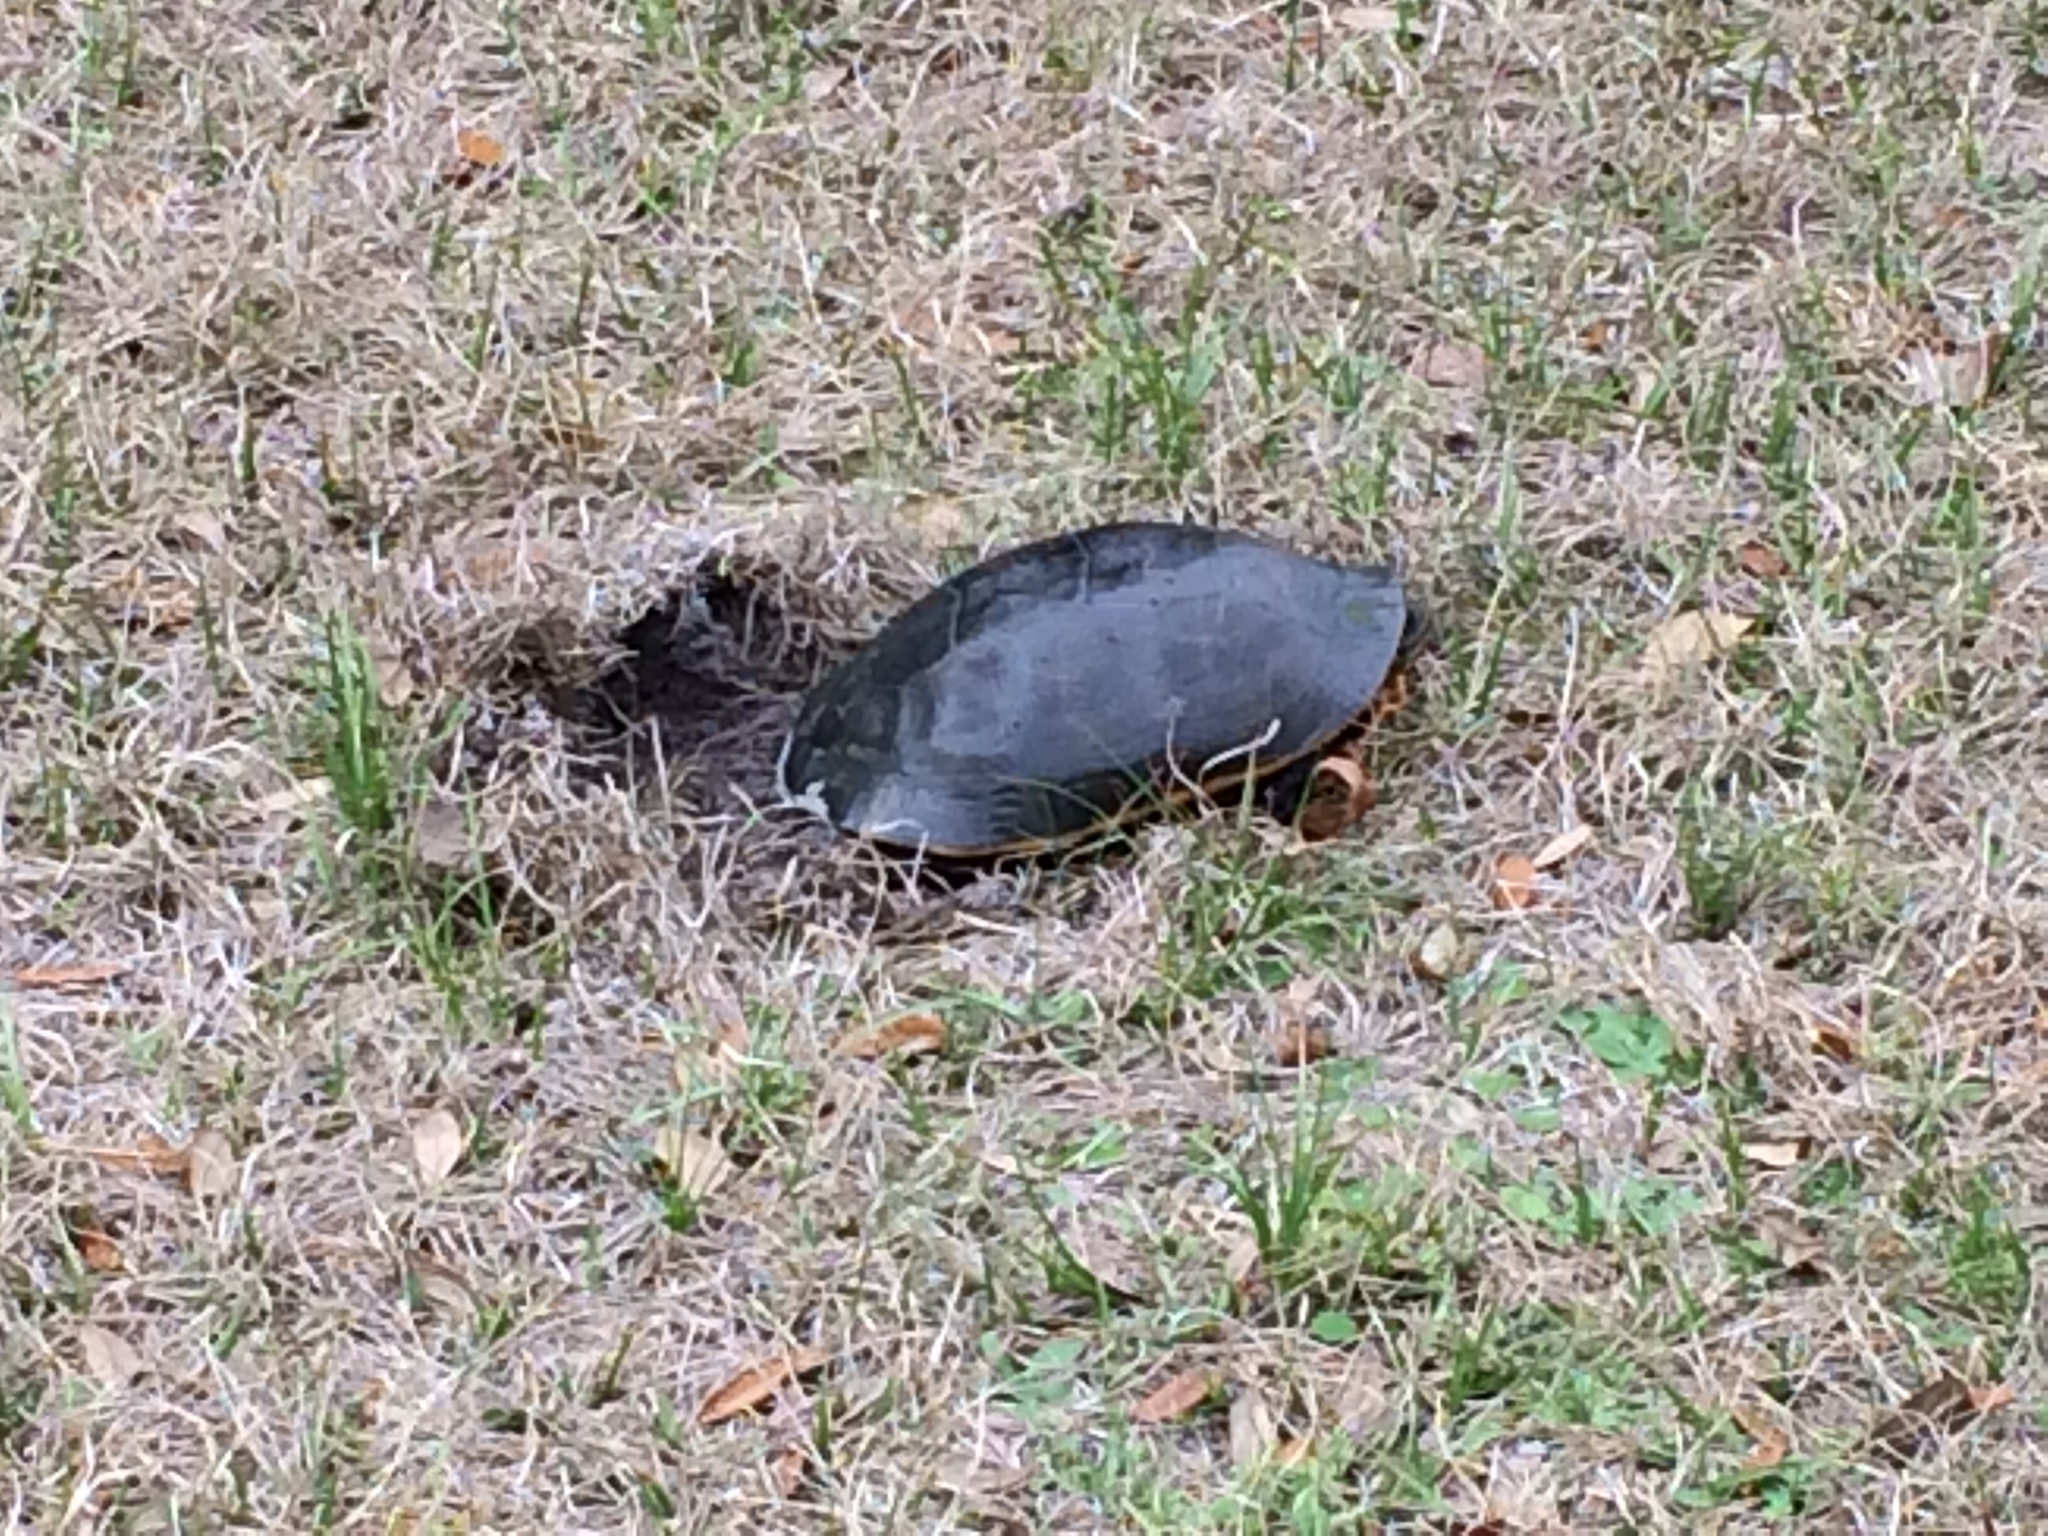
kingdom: Animalia
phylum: Chordata
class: Testudines
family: Emydidae
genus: Deirochelys
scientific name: Deirochelys reticularia
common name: Chicken turtle
